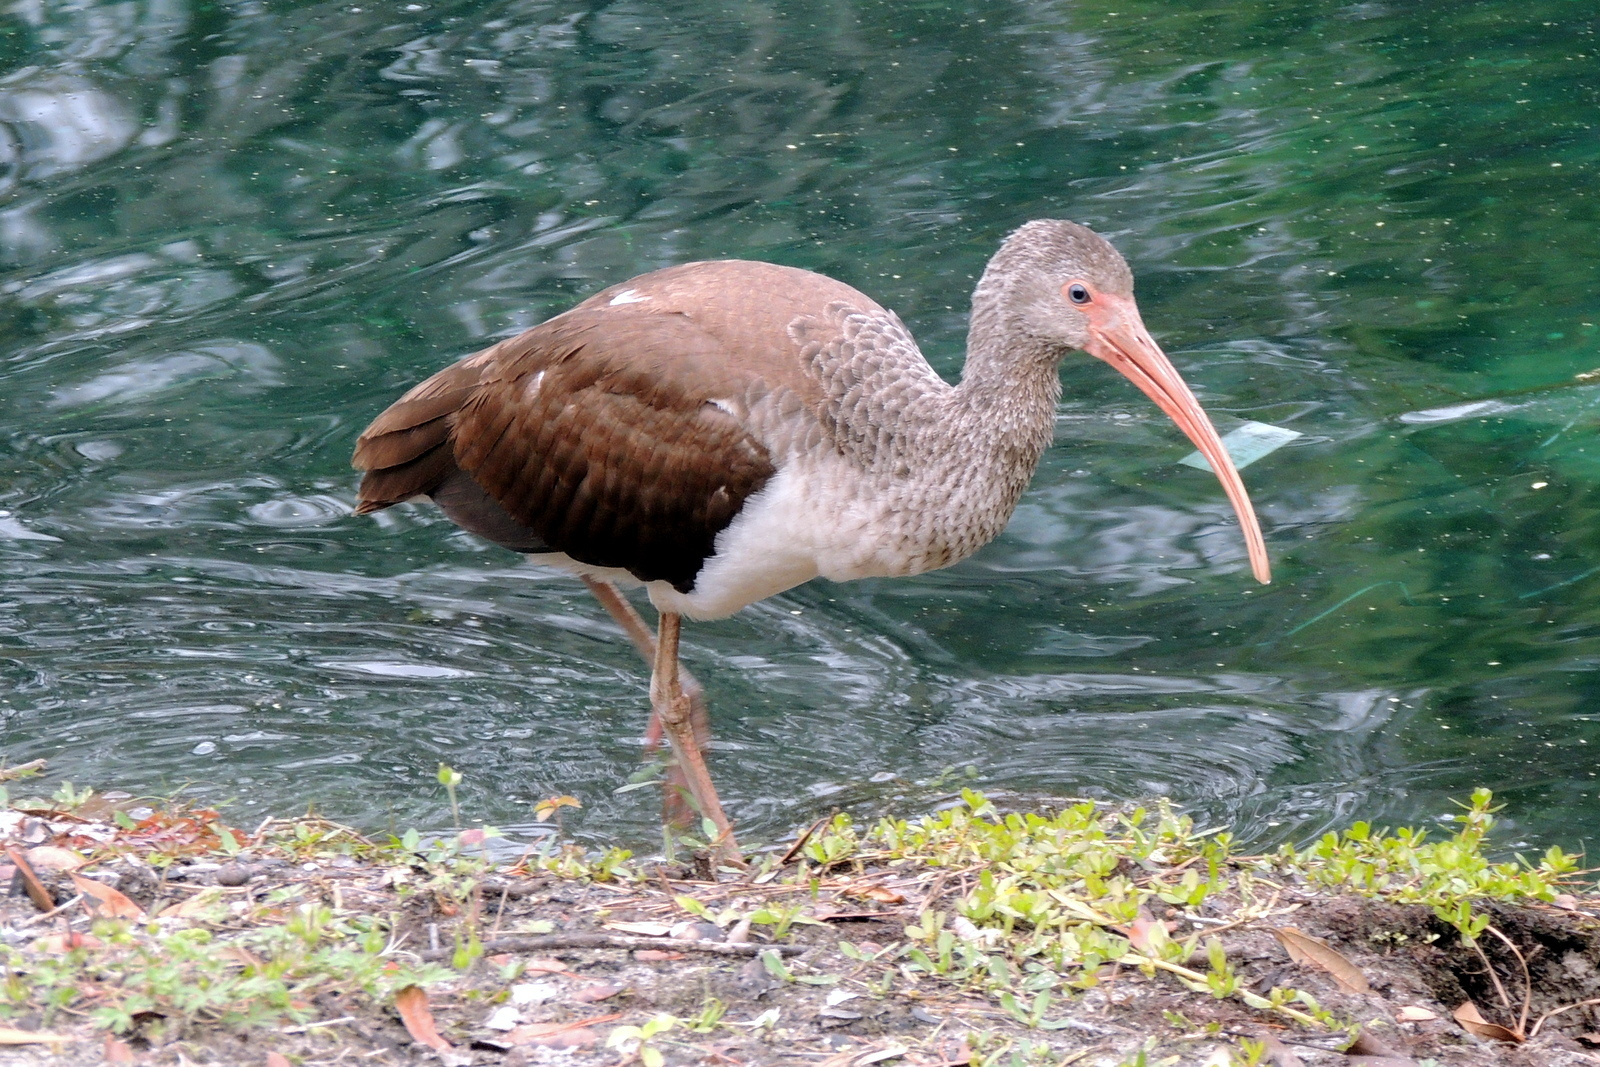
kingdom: Animalia
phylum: Chordata
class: Aves
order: Pelecaniformes
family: Threskiornithidae
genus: Eudocimus
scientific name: Eudocimus albus
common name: White ibis
